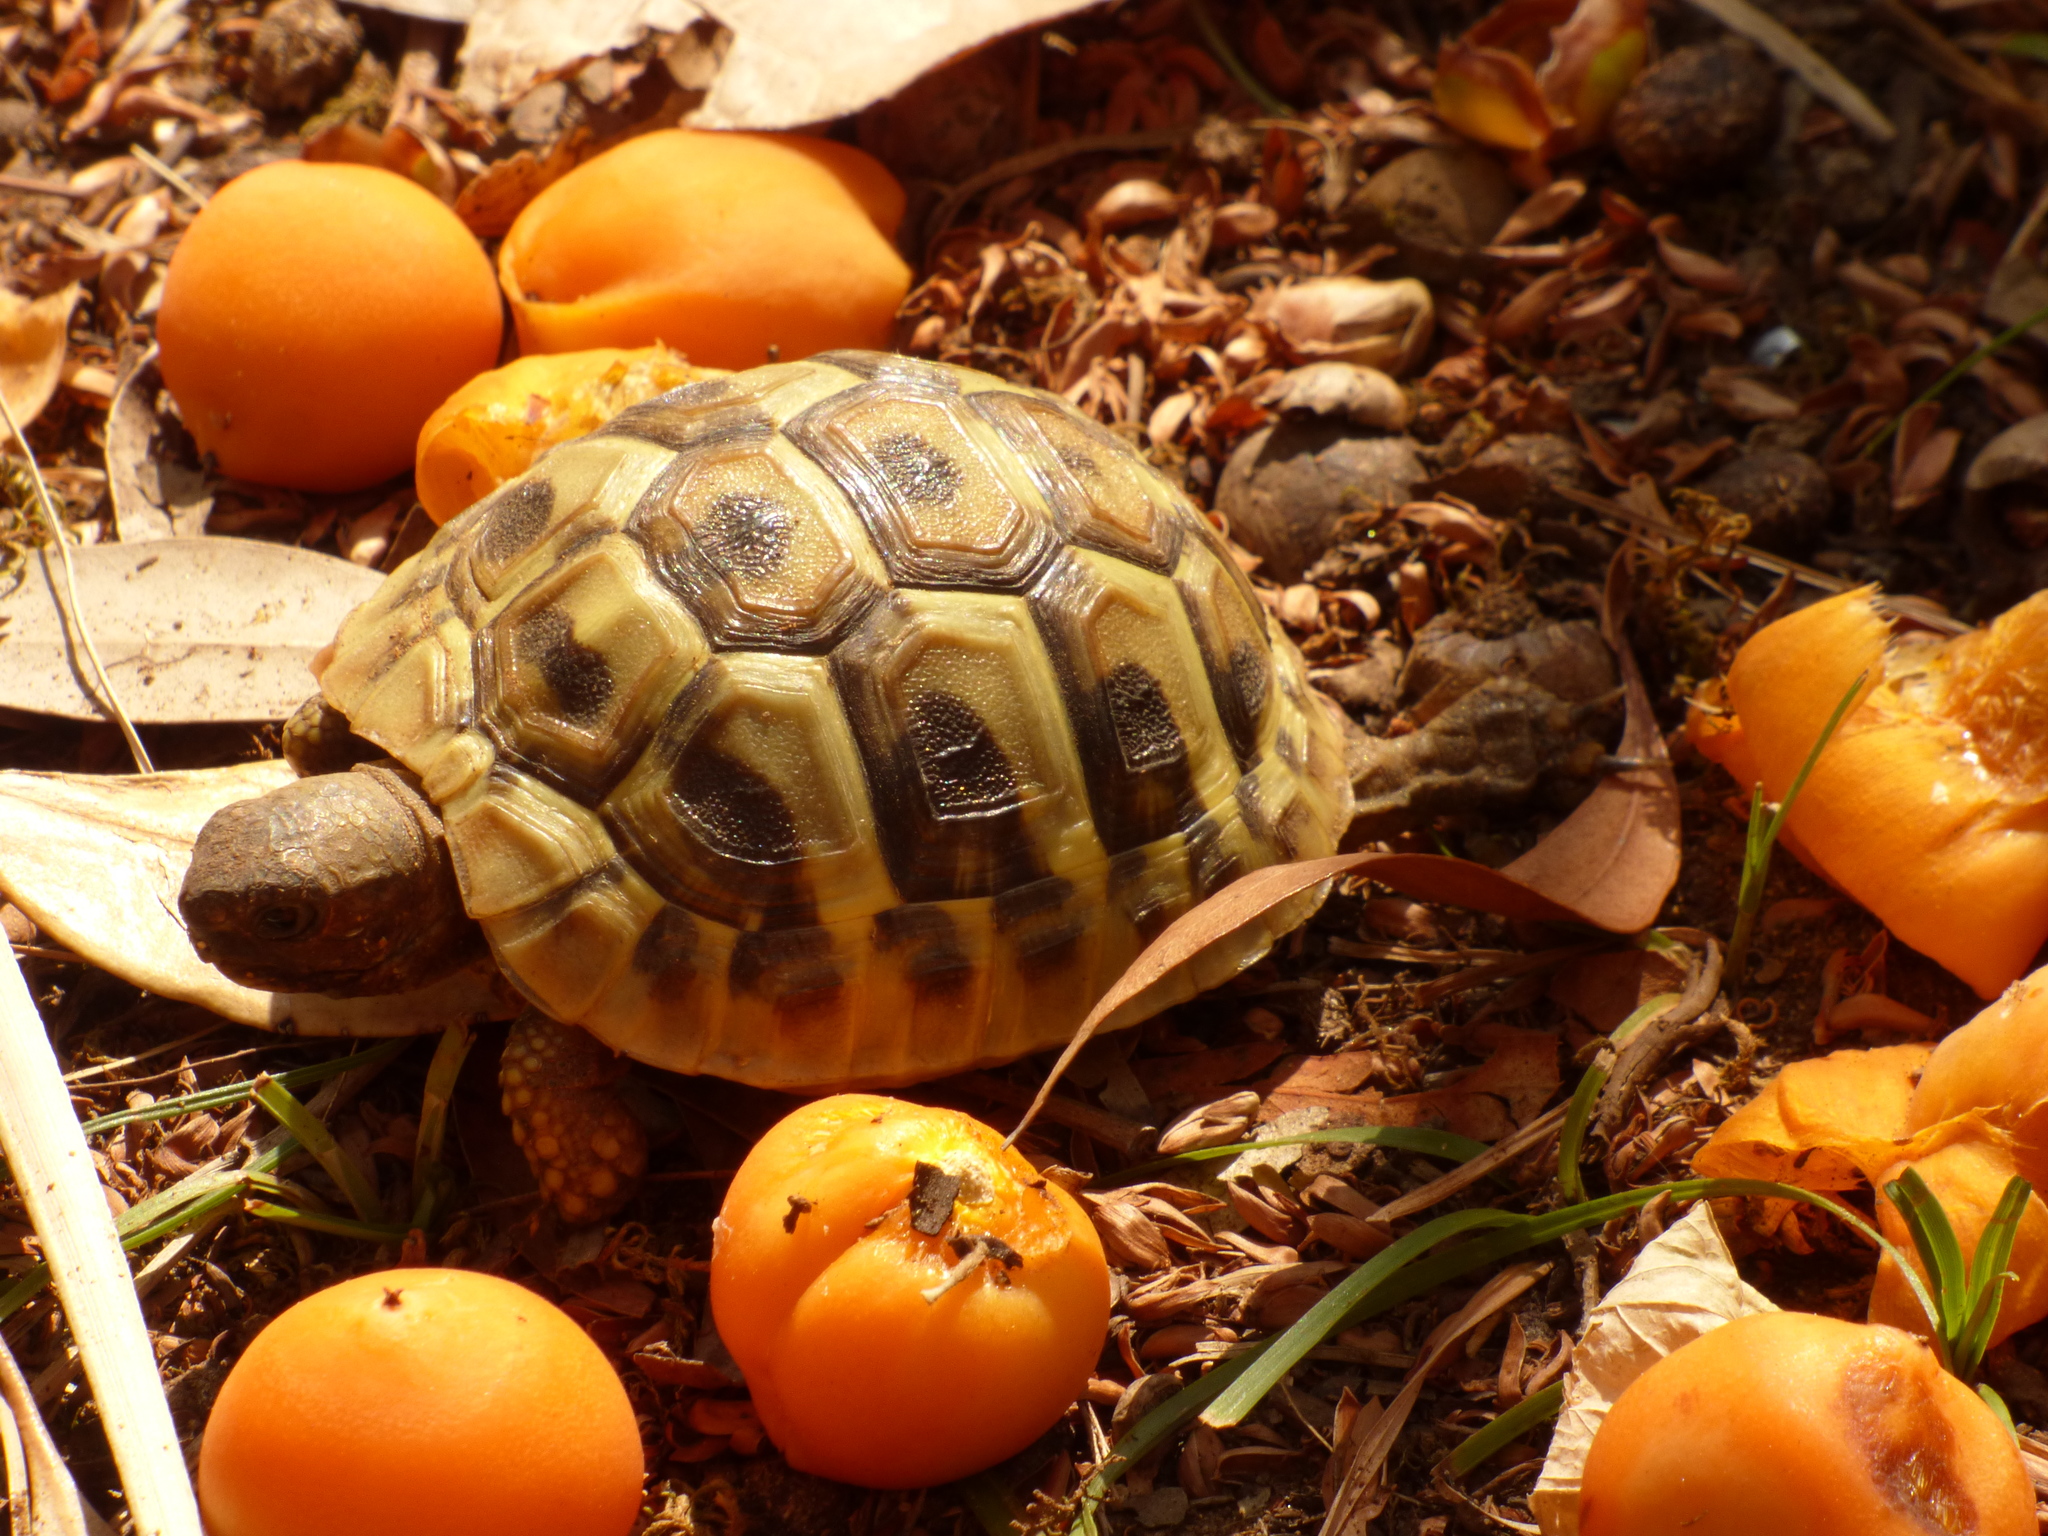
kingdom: Animalia
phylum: Chordata
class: Testudines
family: Testudinidae
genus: Testudo
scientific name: Testudo hermanni
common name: Hermann's tortoise
